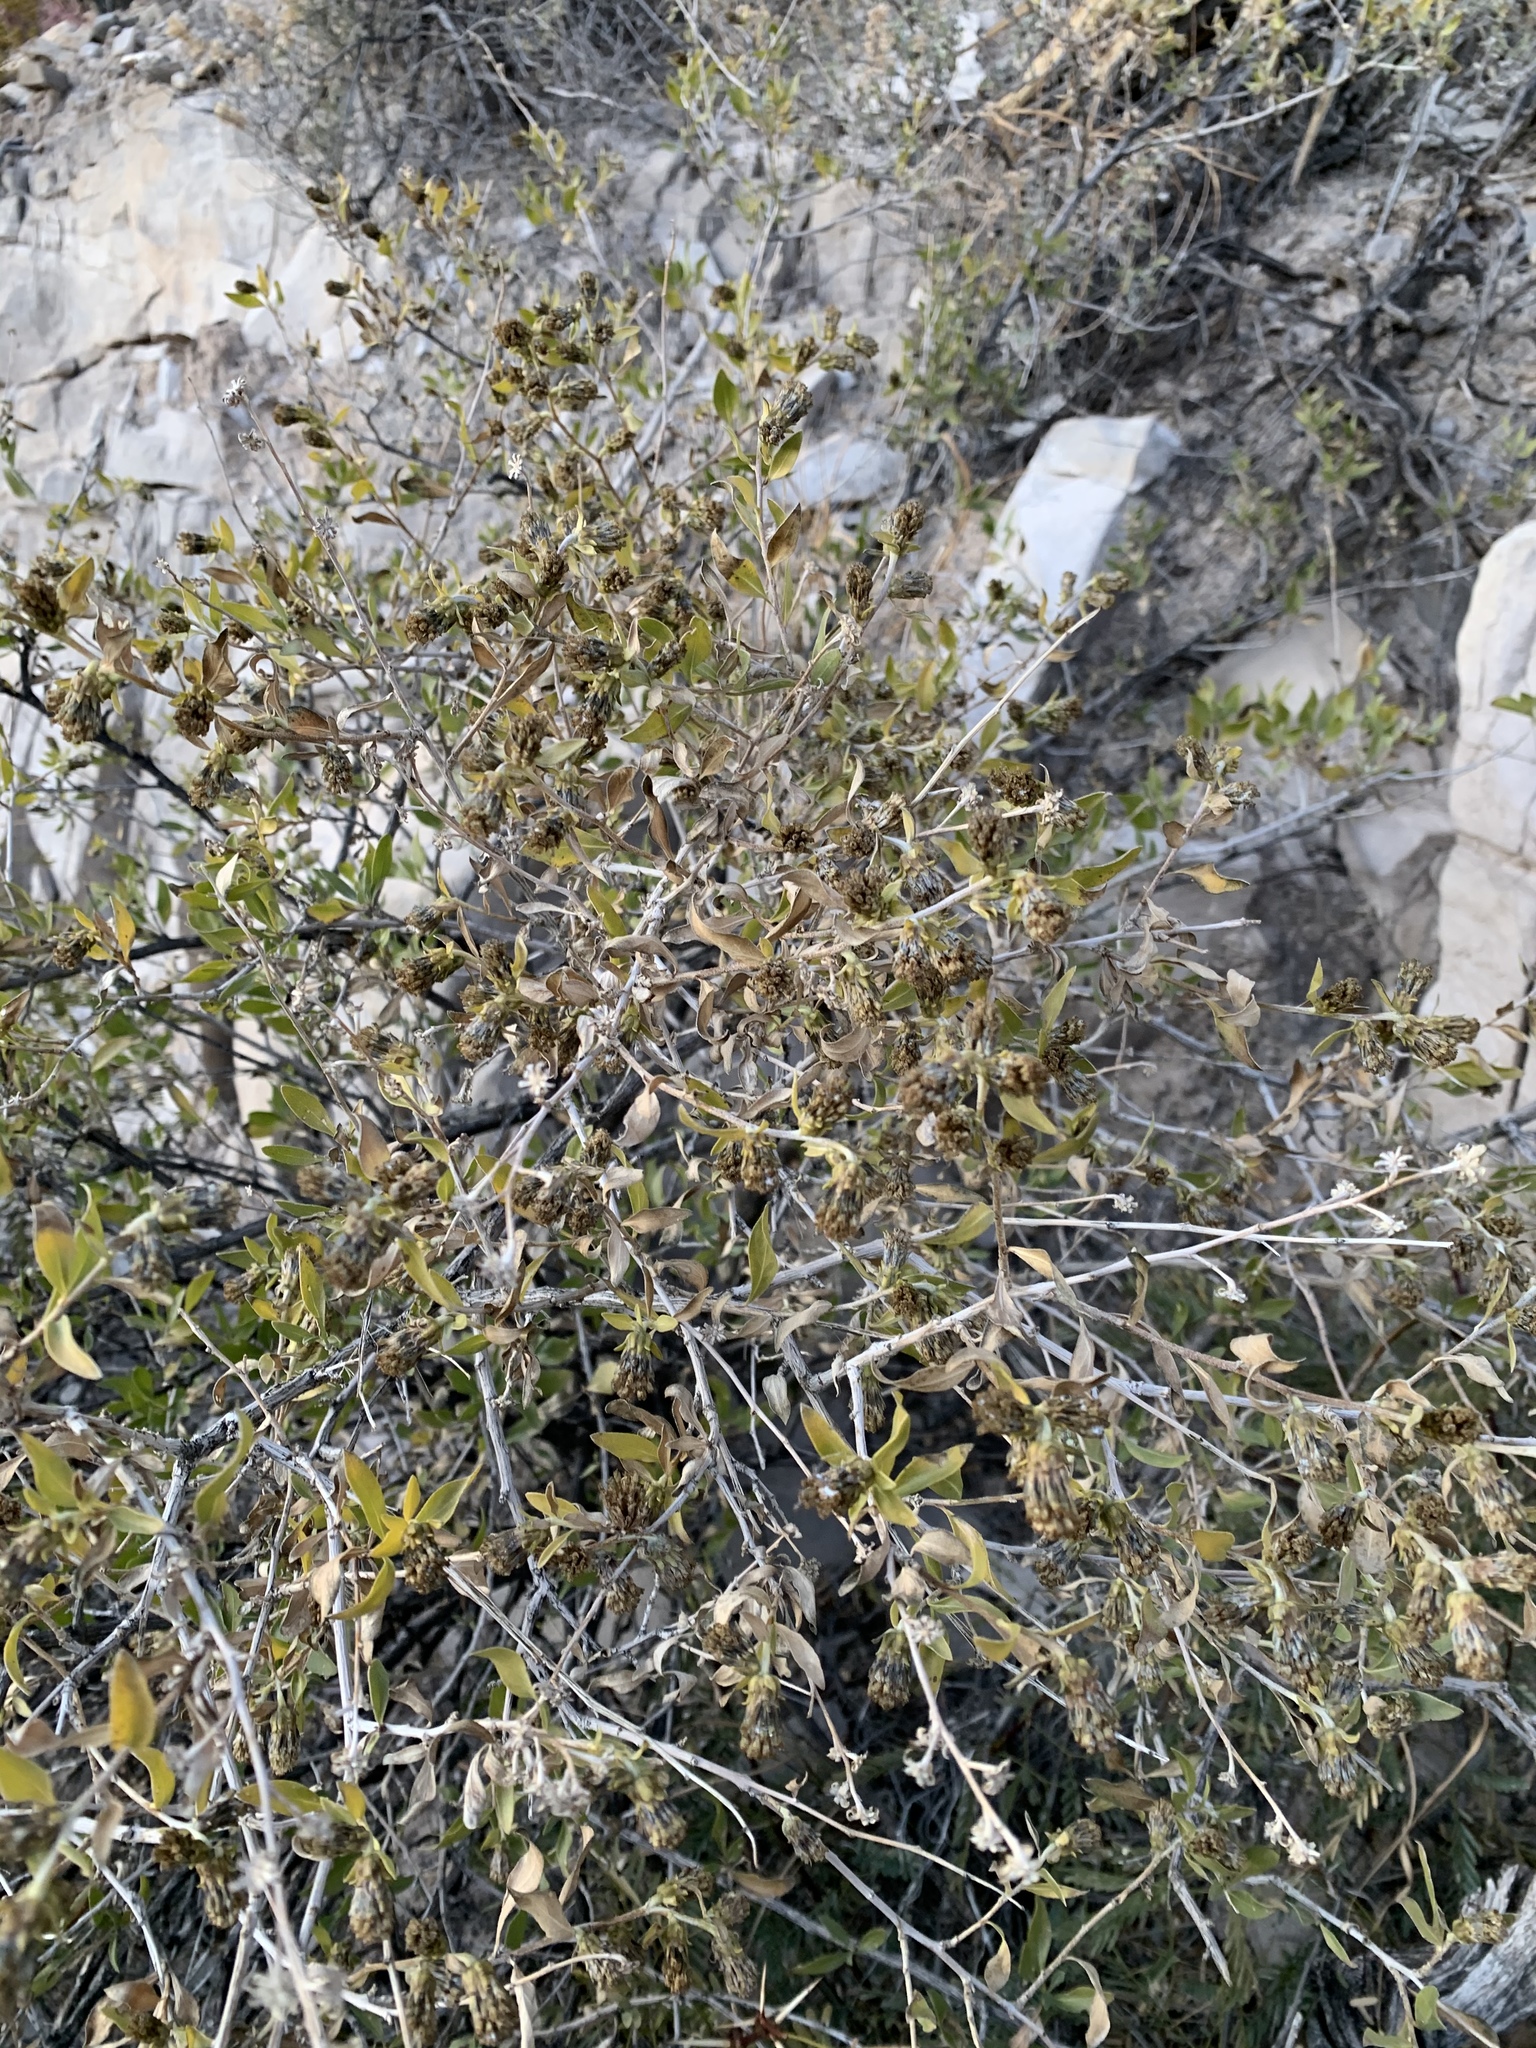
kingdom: Plantae
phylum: Tracheophyta
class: Magnoliopsida
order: Asterales
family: Asteraceae
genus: Flourensia
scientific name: Flourensia cernua
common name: Varnishbush
